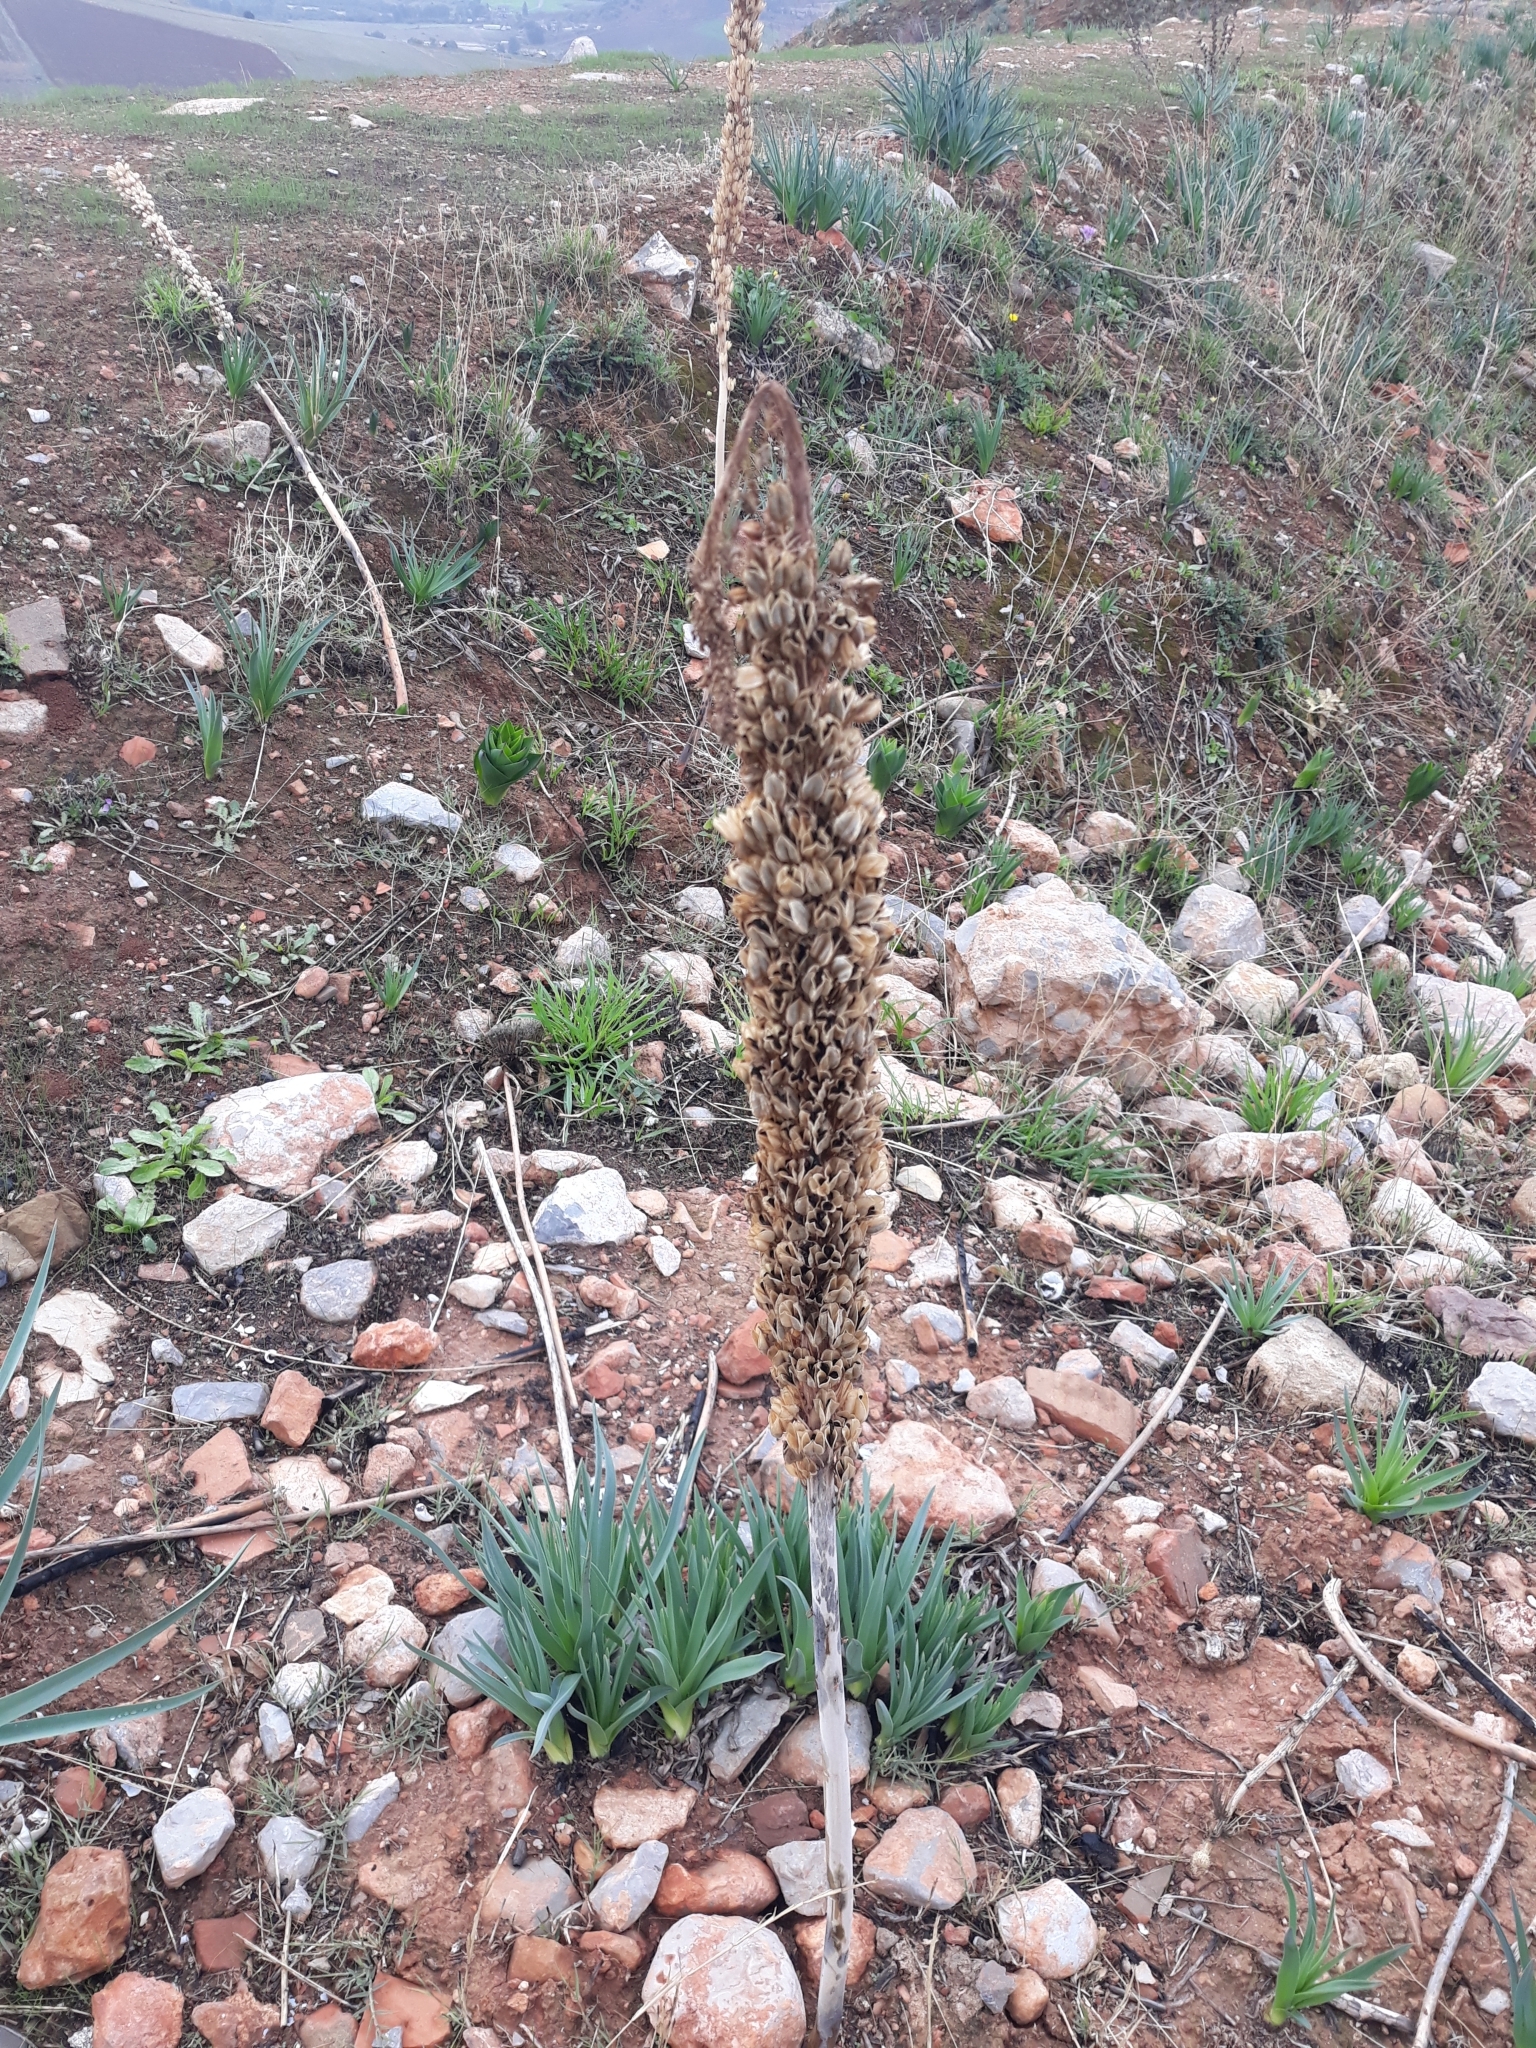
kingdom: Plantae
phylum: Tracheophyta
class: Liliopsida
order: Asparagales
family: Asparagaceae
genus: Drimia
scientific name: Drimia numidica
